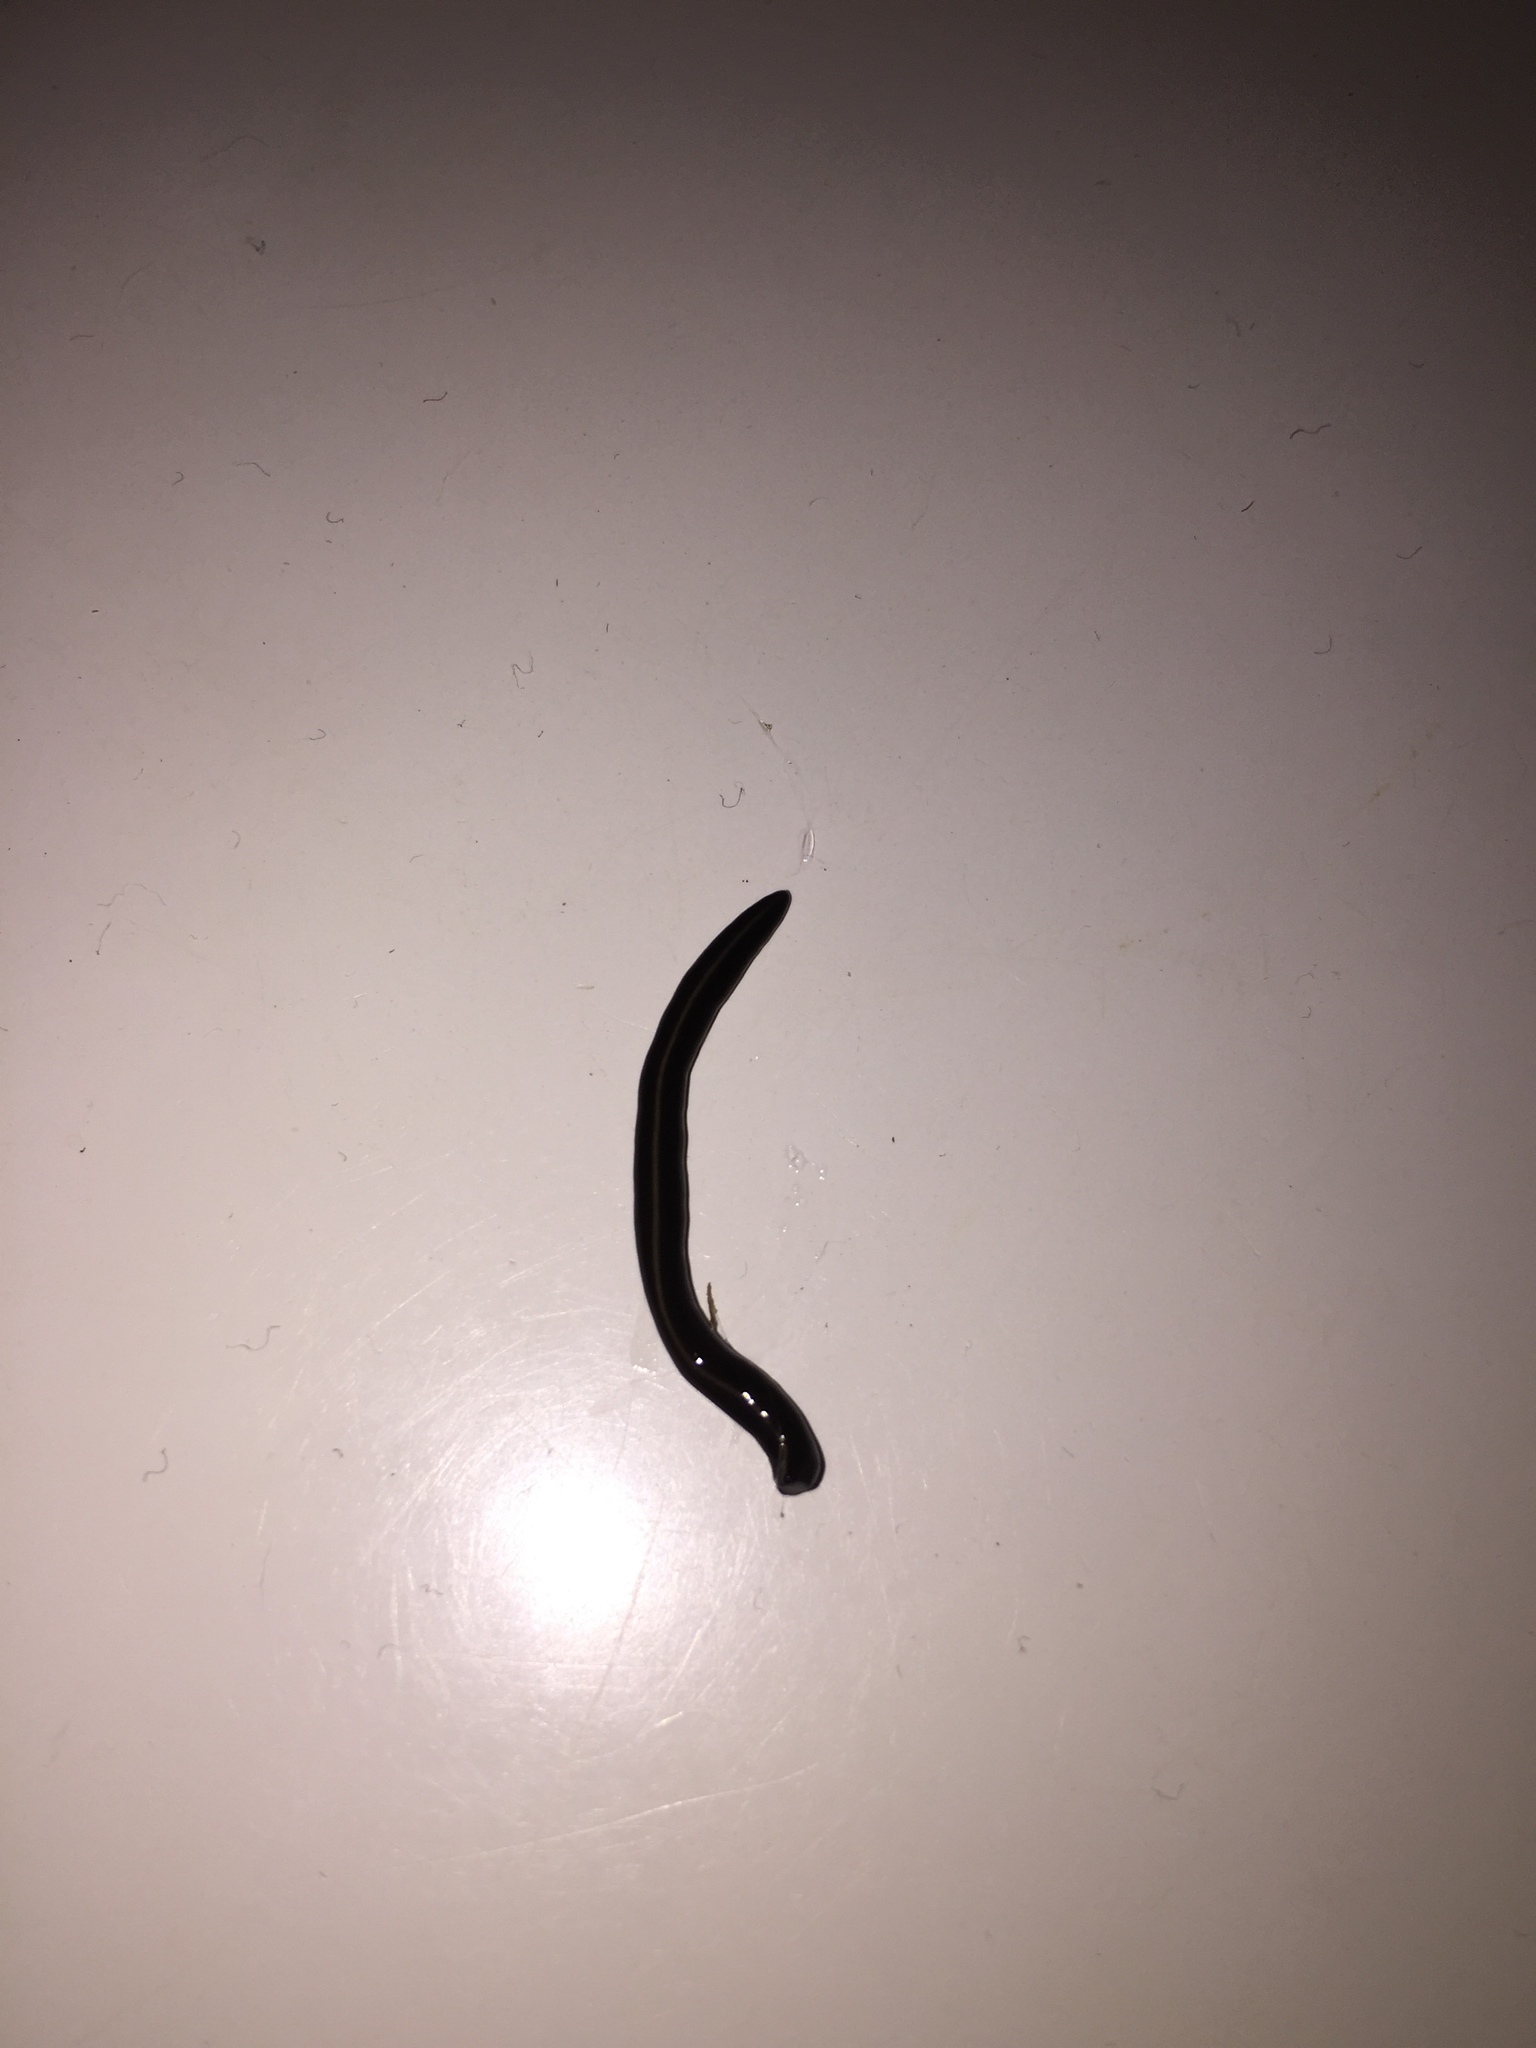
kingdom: Animalia
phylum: Platyhelminthes
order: Tricladida
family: Geoplanidae
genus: Caenoplana
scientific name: Caenoplana coerulea
